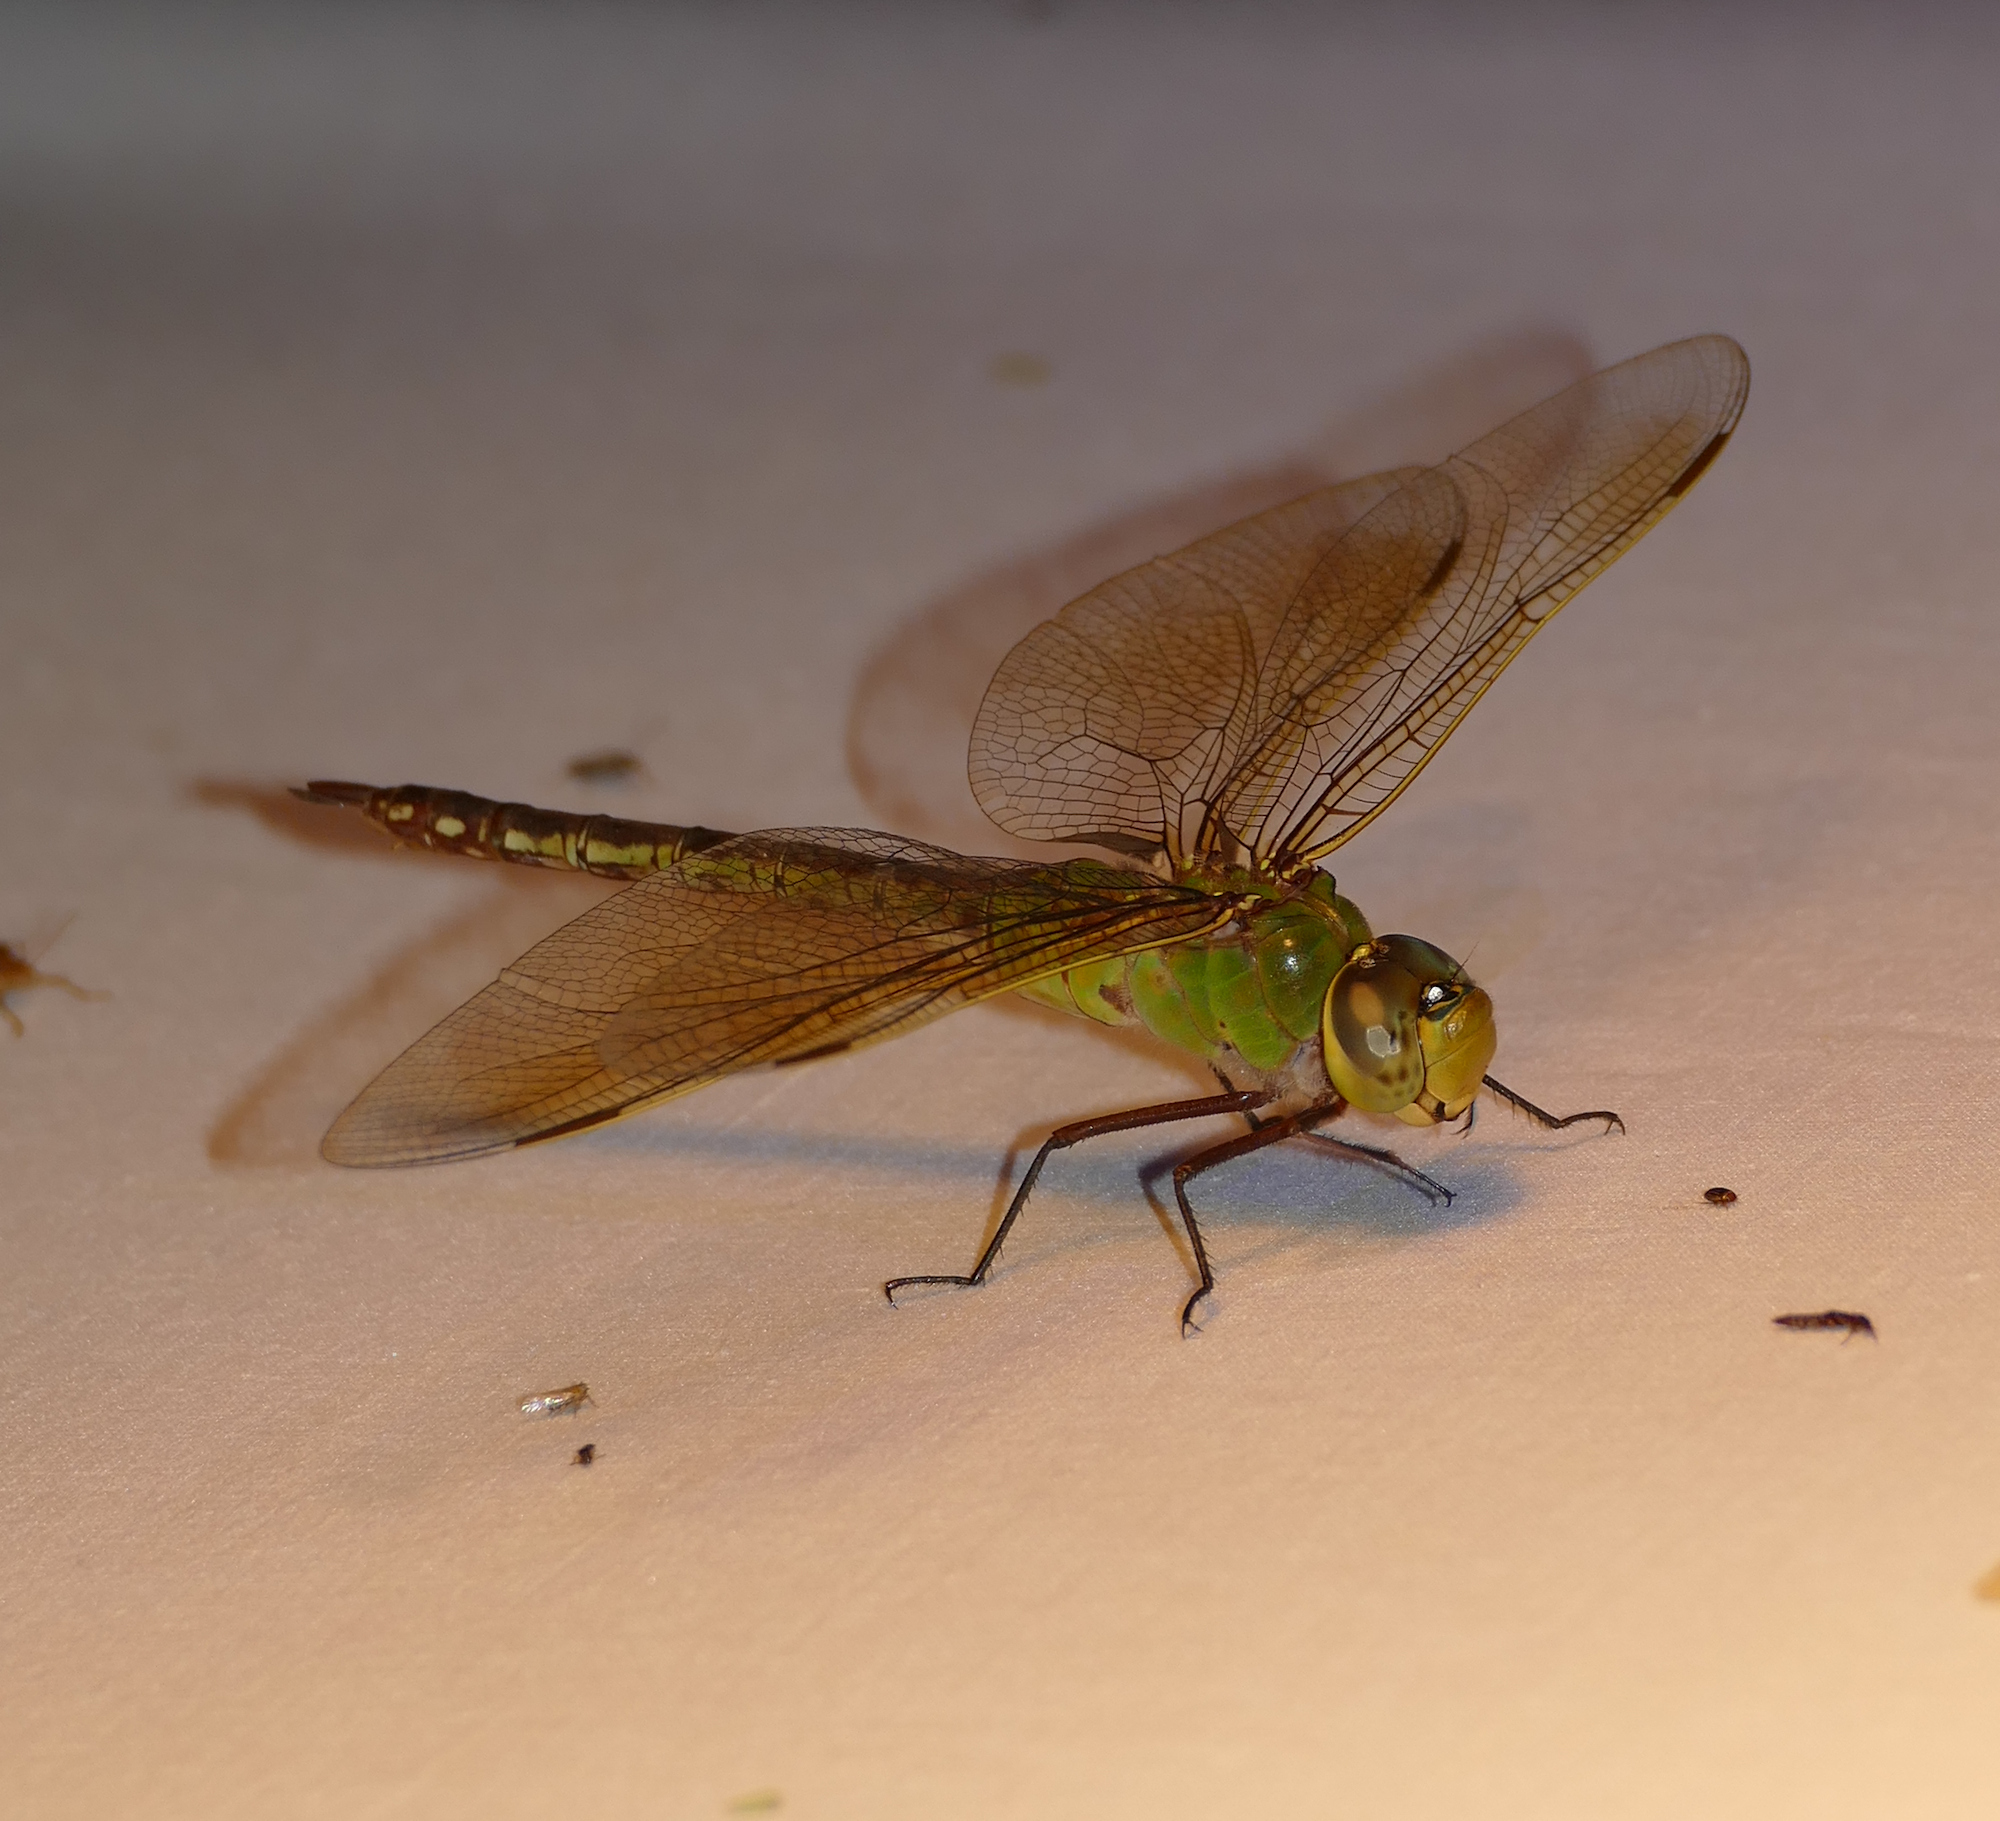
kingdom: Animalia
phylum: Arthropoda
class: Insecta
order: Odonata
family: Aeshnidae
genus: Anax
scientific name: Anax junius
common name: Common green darner
